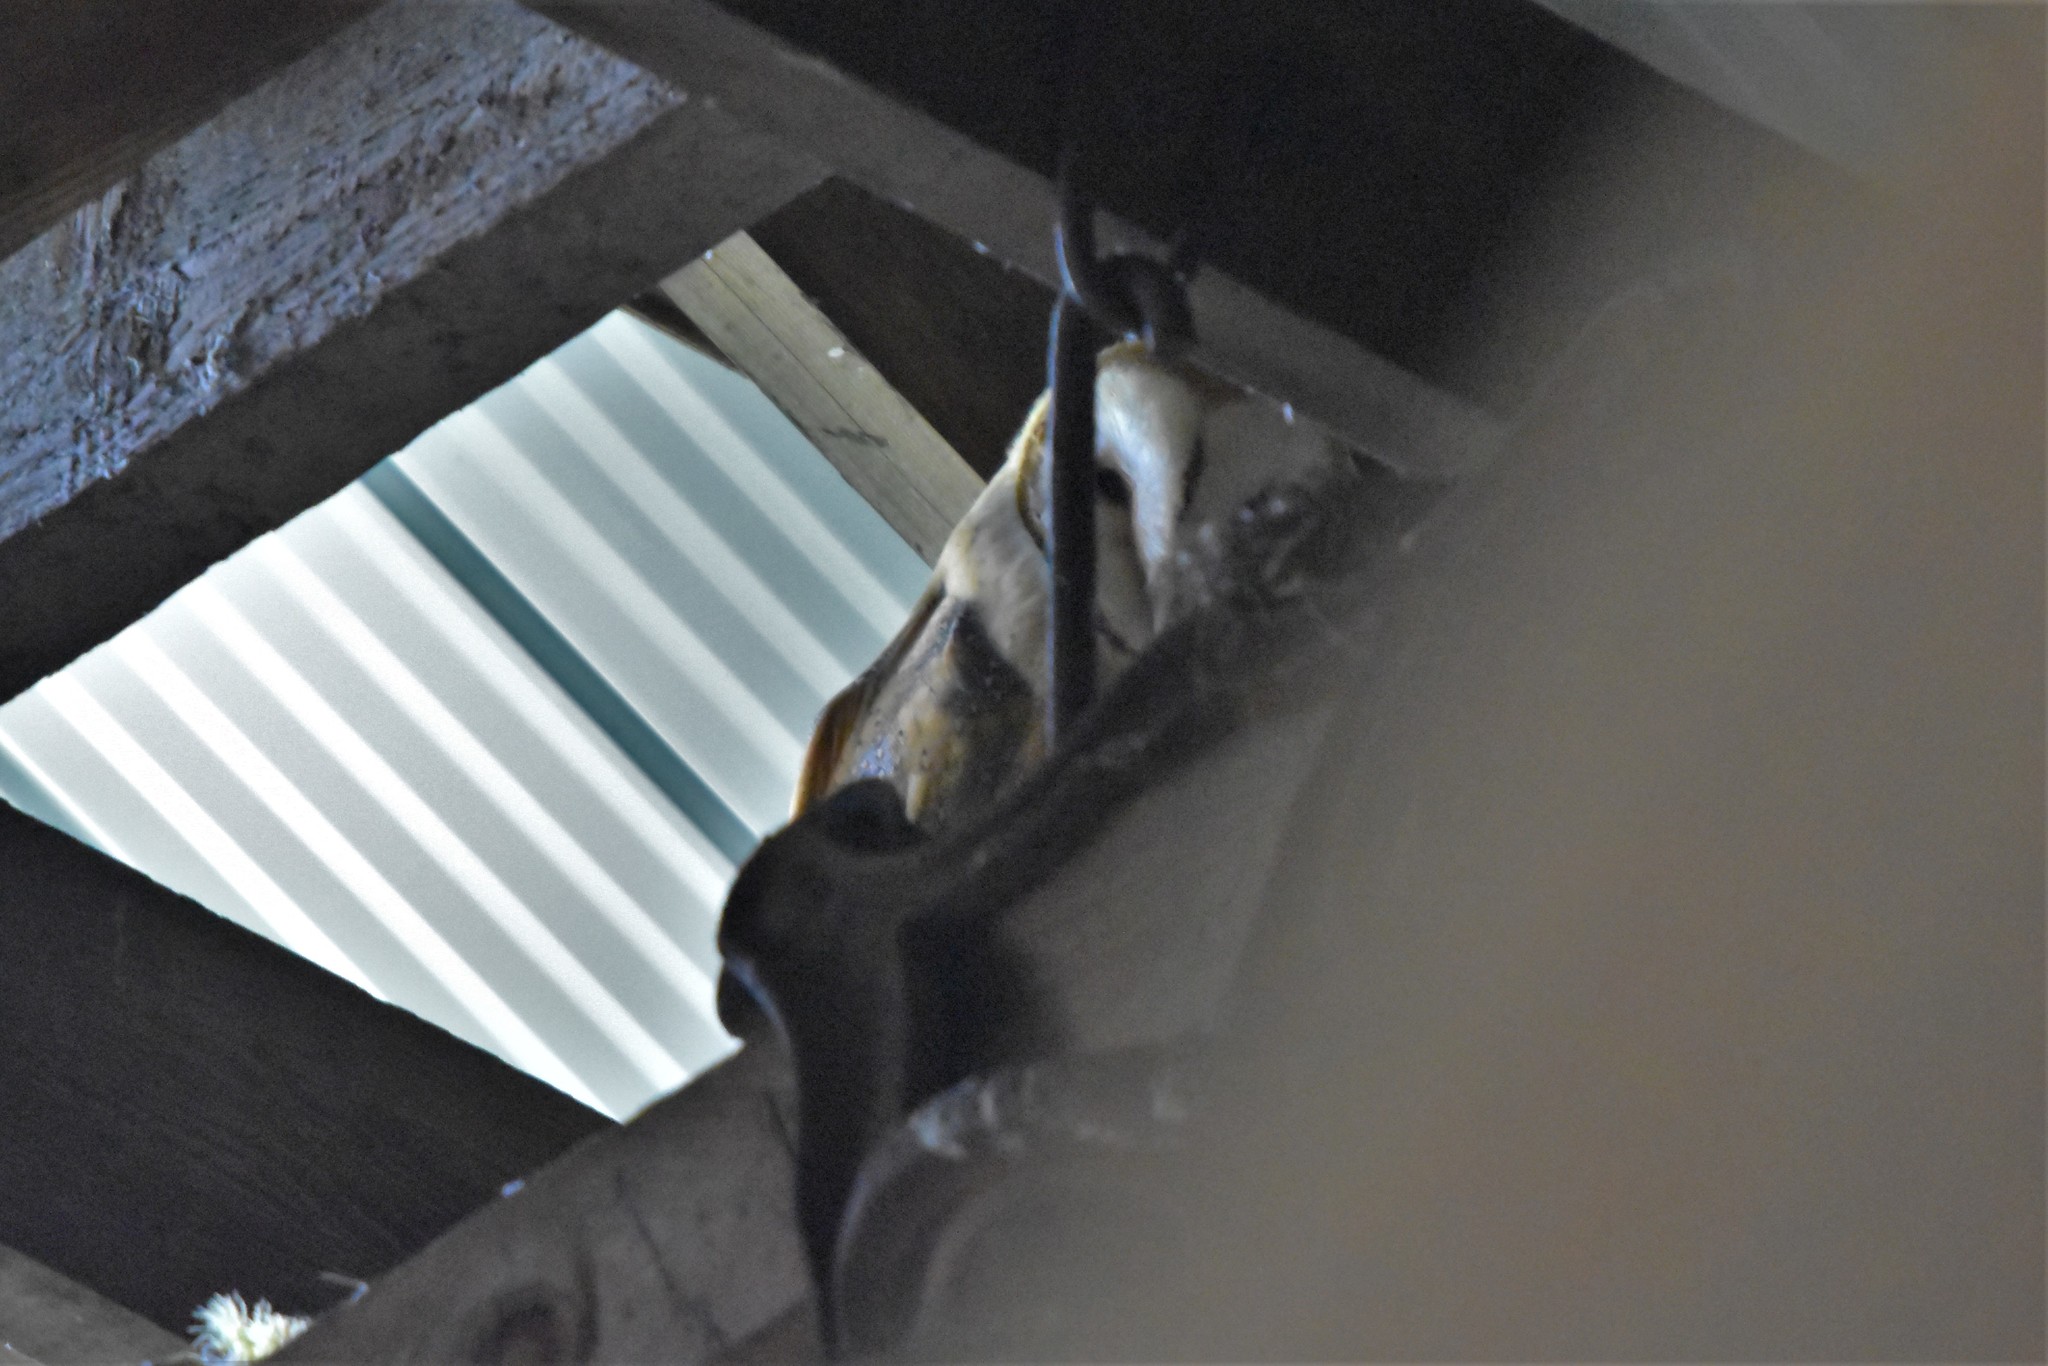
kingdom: Animalia
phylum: Chordata
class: Aves
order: Strigiformes
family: Tytonidae
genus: Tyto
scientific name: Tyto alba
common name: Barn owl
